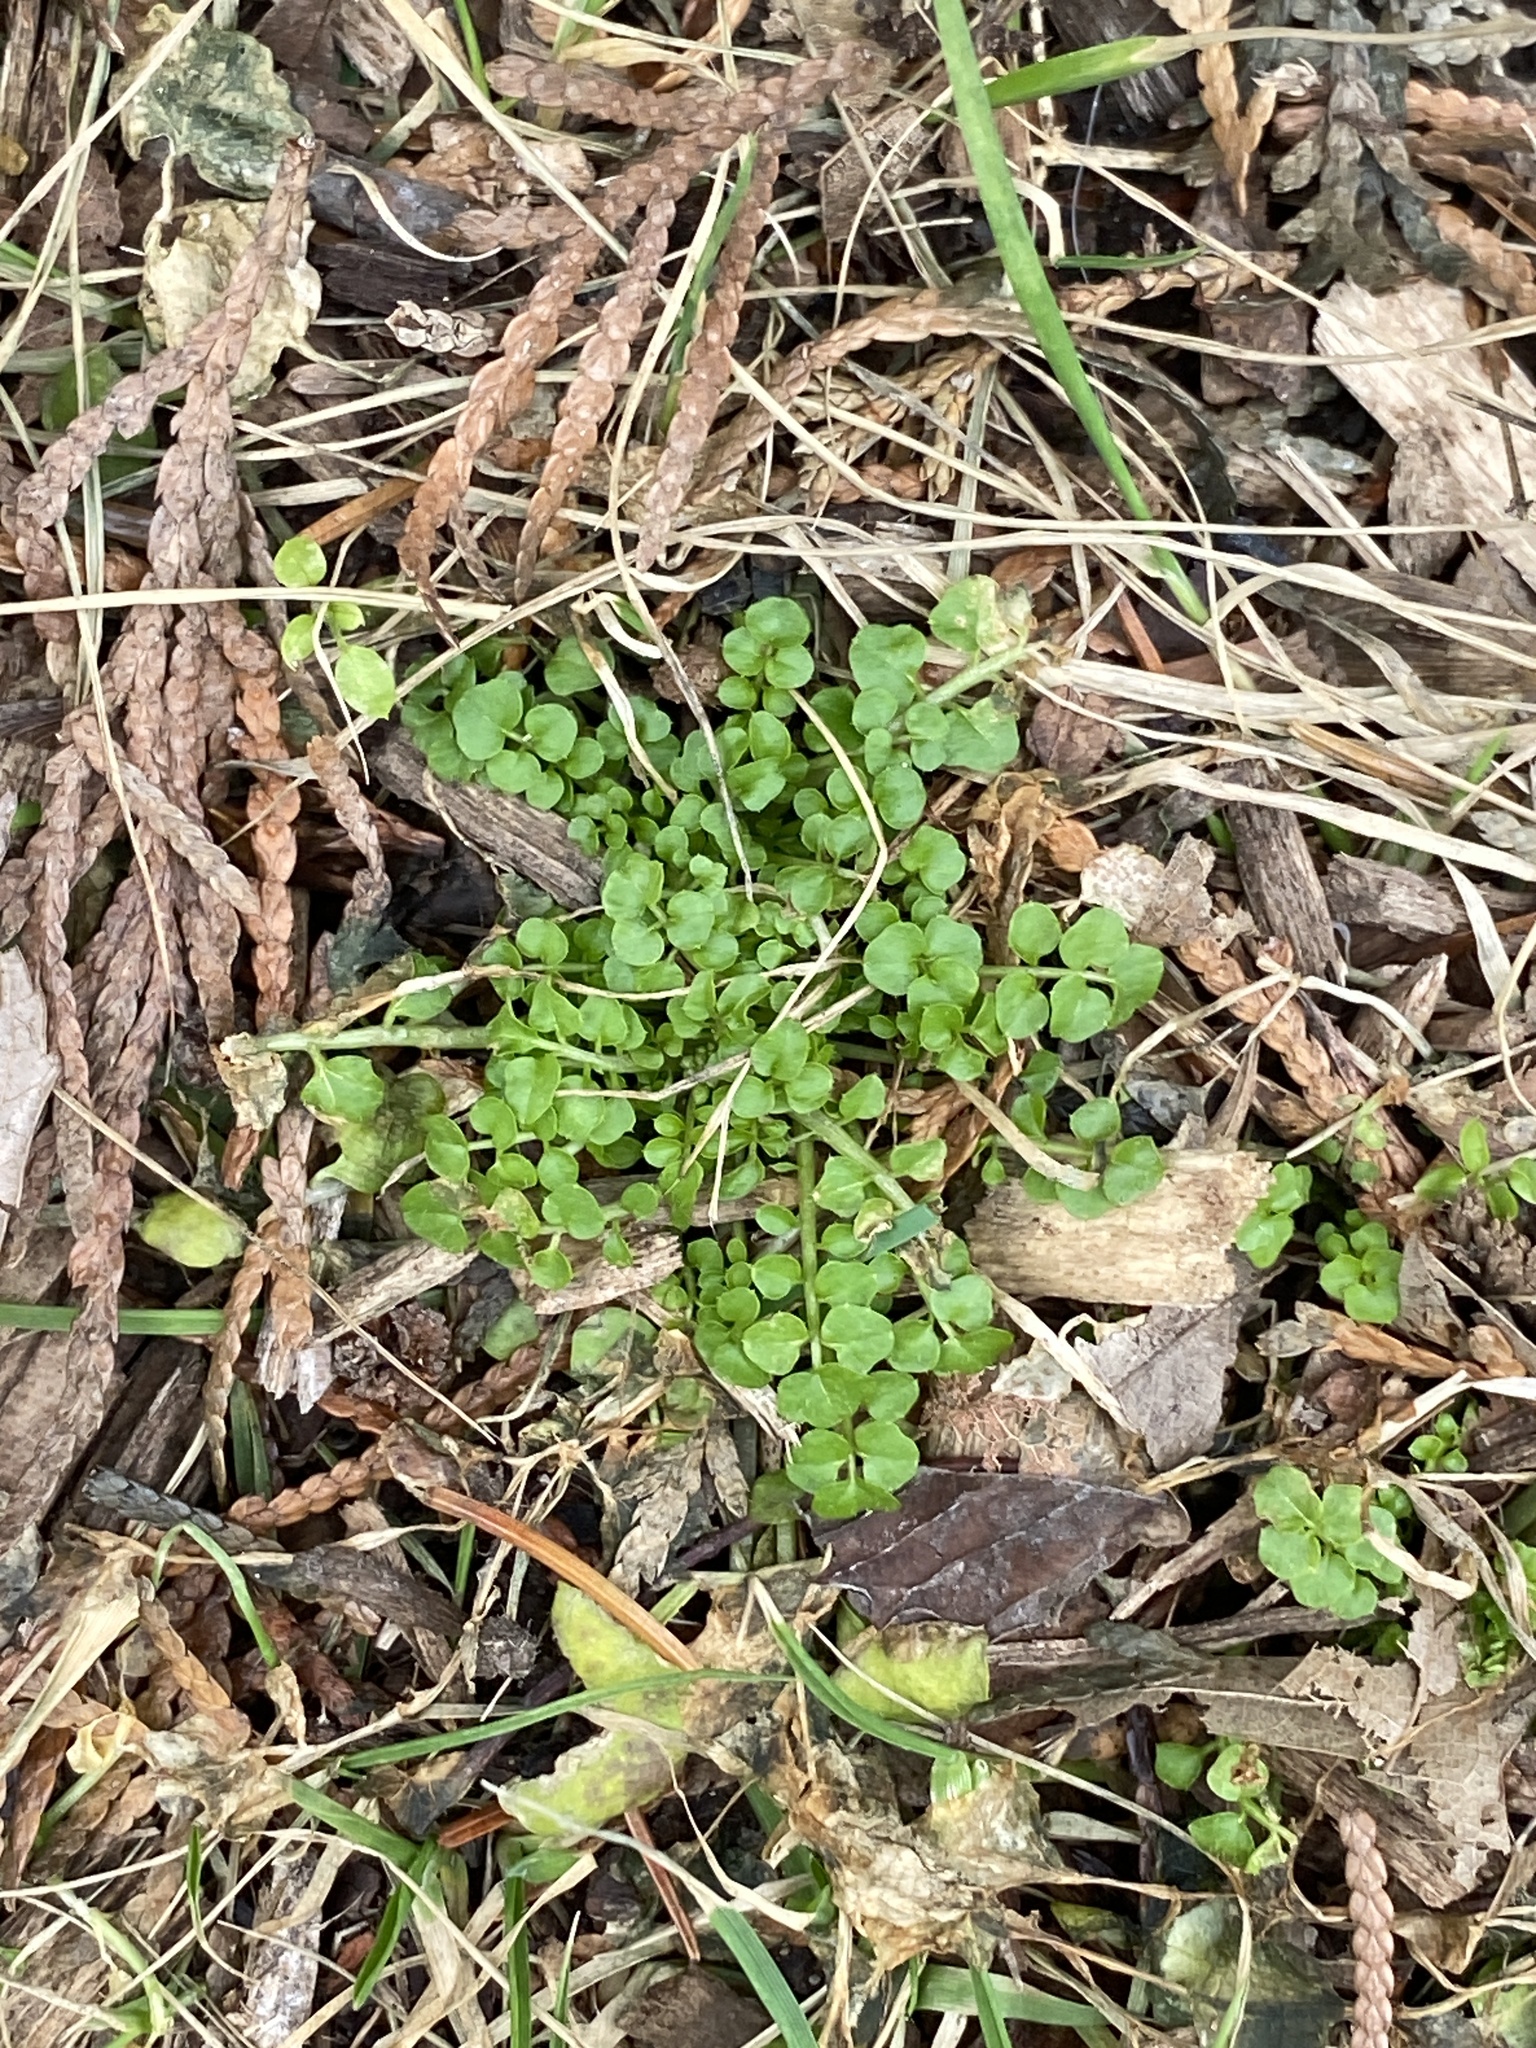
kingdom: Plantae
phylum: Tracheophyta
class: Magnoliopsida
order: Brassicales
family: Brassicaceae
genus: Cardamine
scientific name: Cardamine hirsuta
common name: Hairy bittercress
